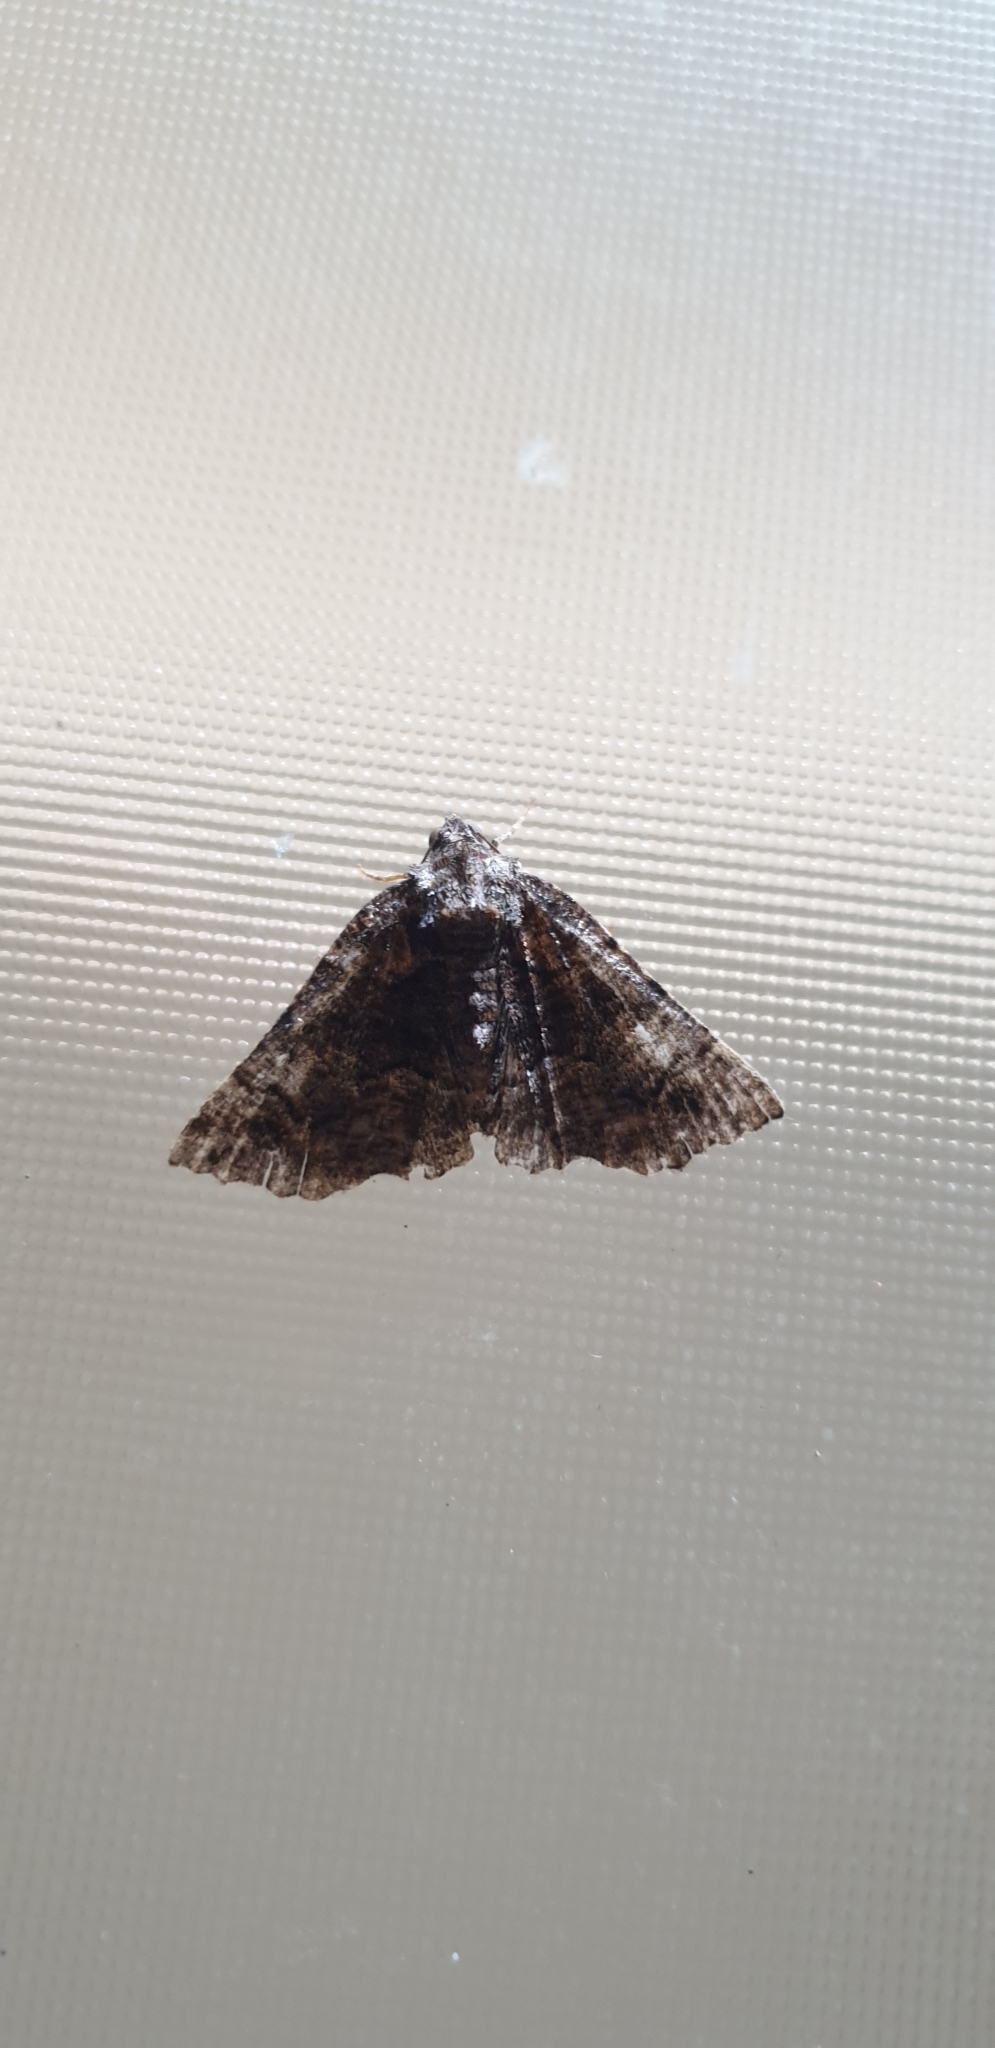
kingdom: Animalia
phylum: Arthropoda
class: Insecta
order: Lepidoptera
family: Geometridae
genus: Gastrina
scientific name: Gastrina cristaria
